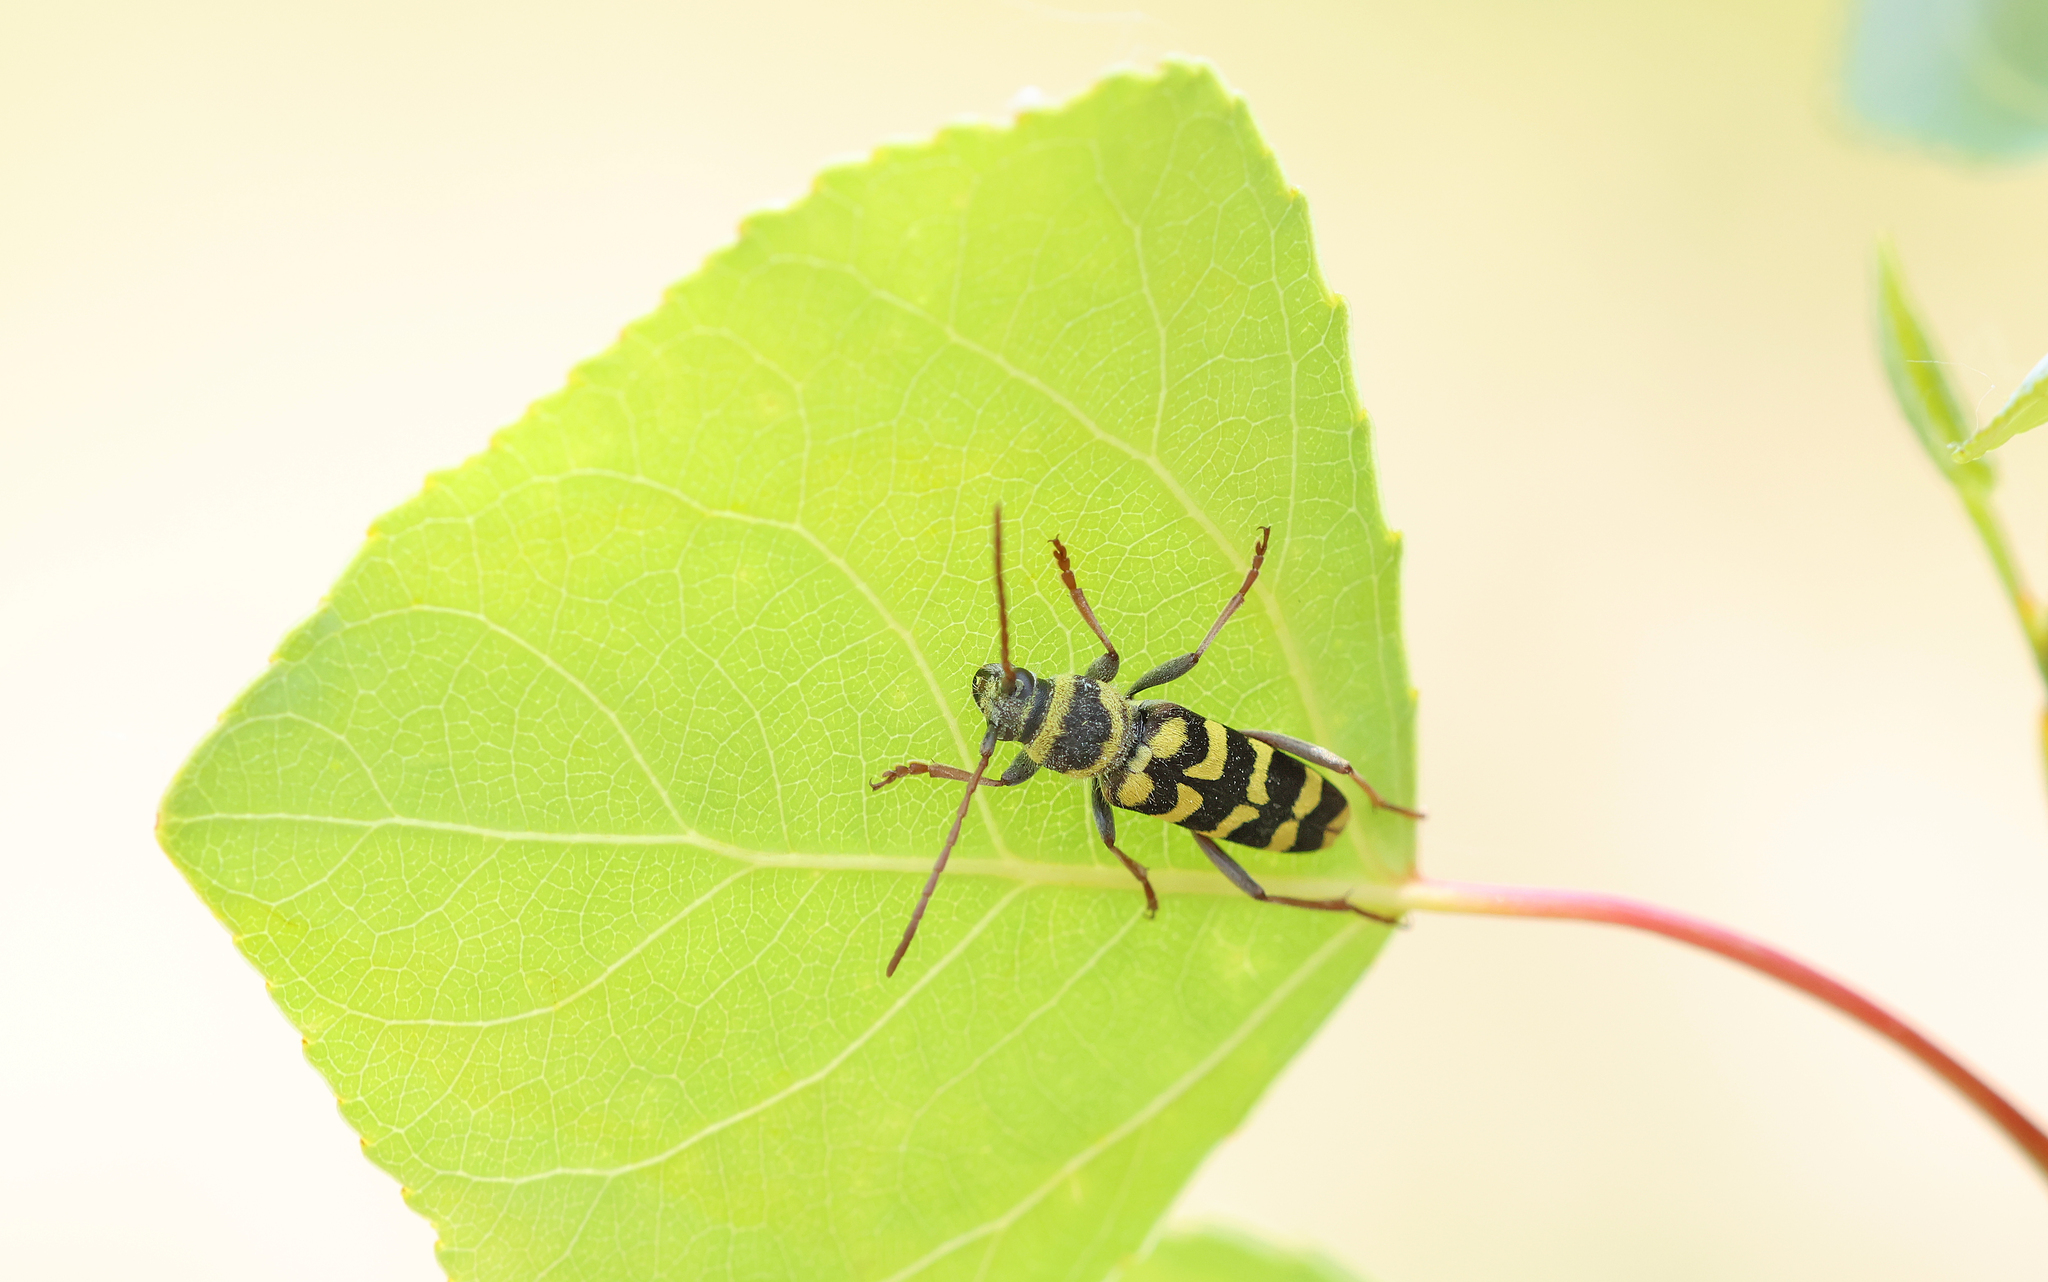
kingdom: Animalia
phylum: Arthropoda
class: Insecta
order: Coleoptera
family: Cerambycidae
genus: Plagionotus
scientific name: Plagionotus floralis
